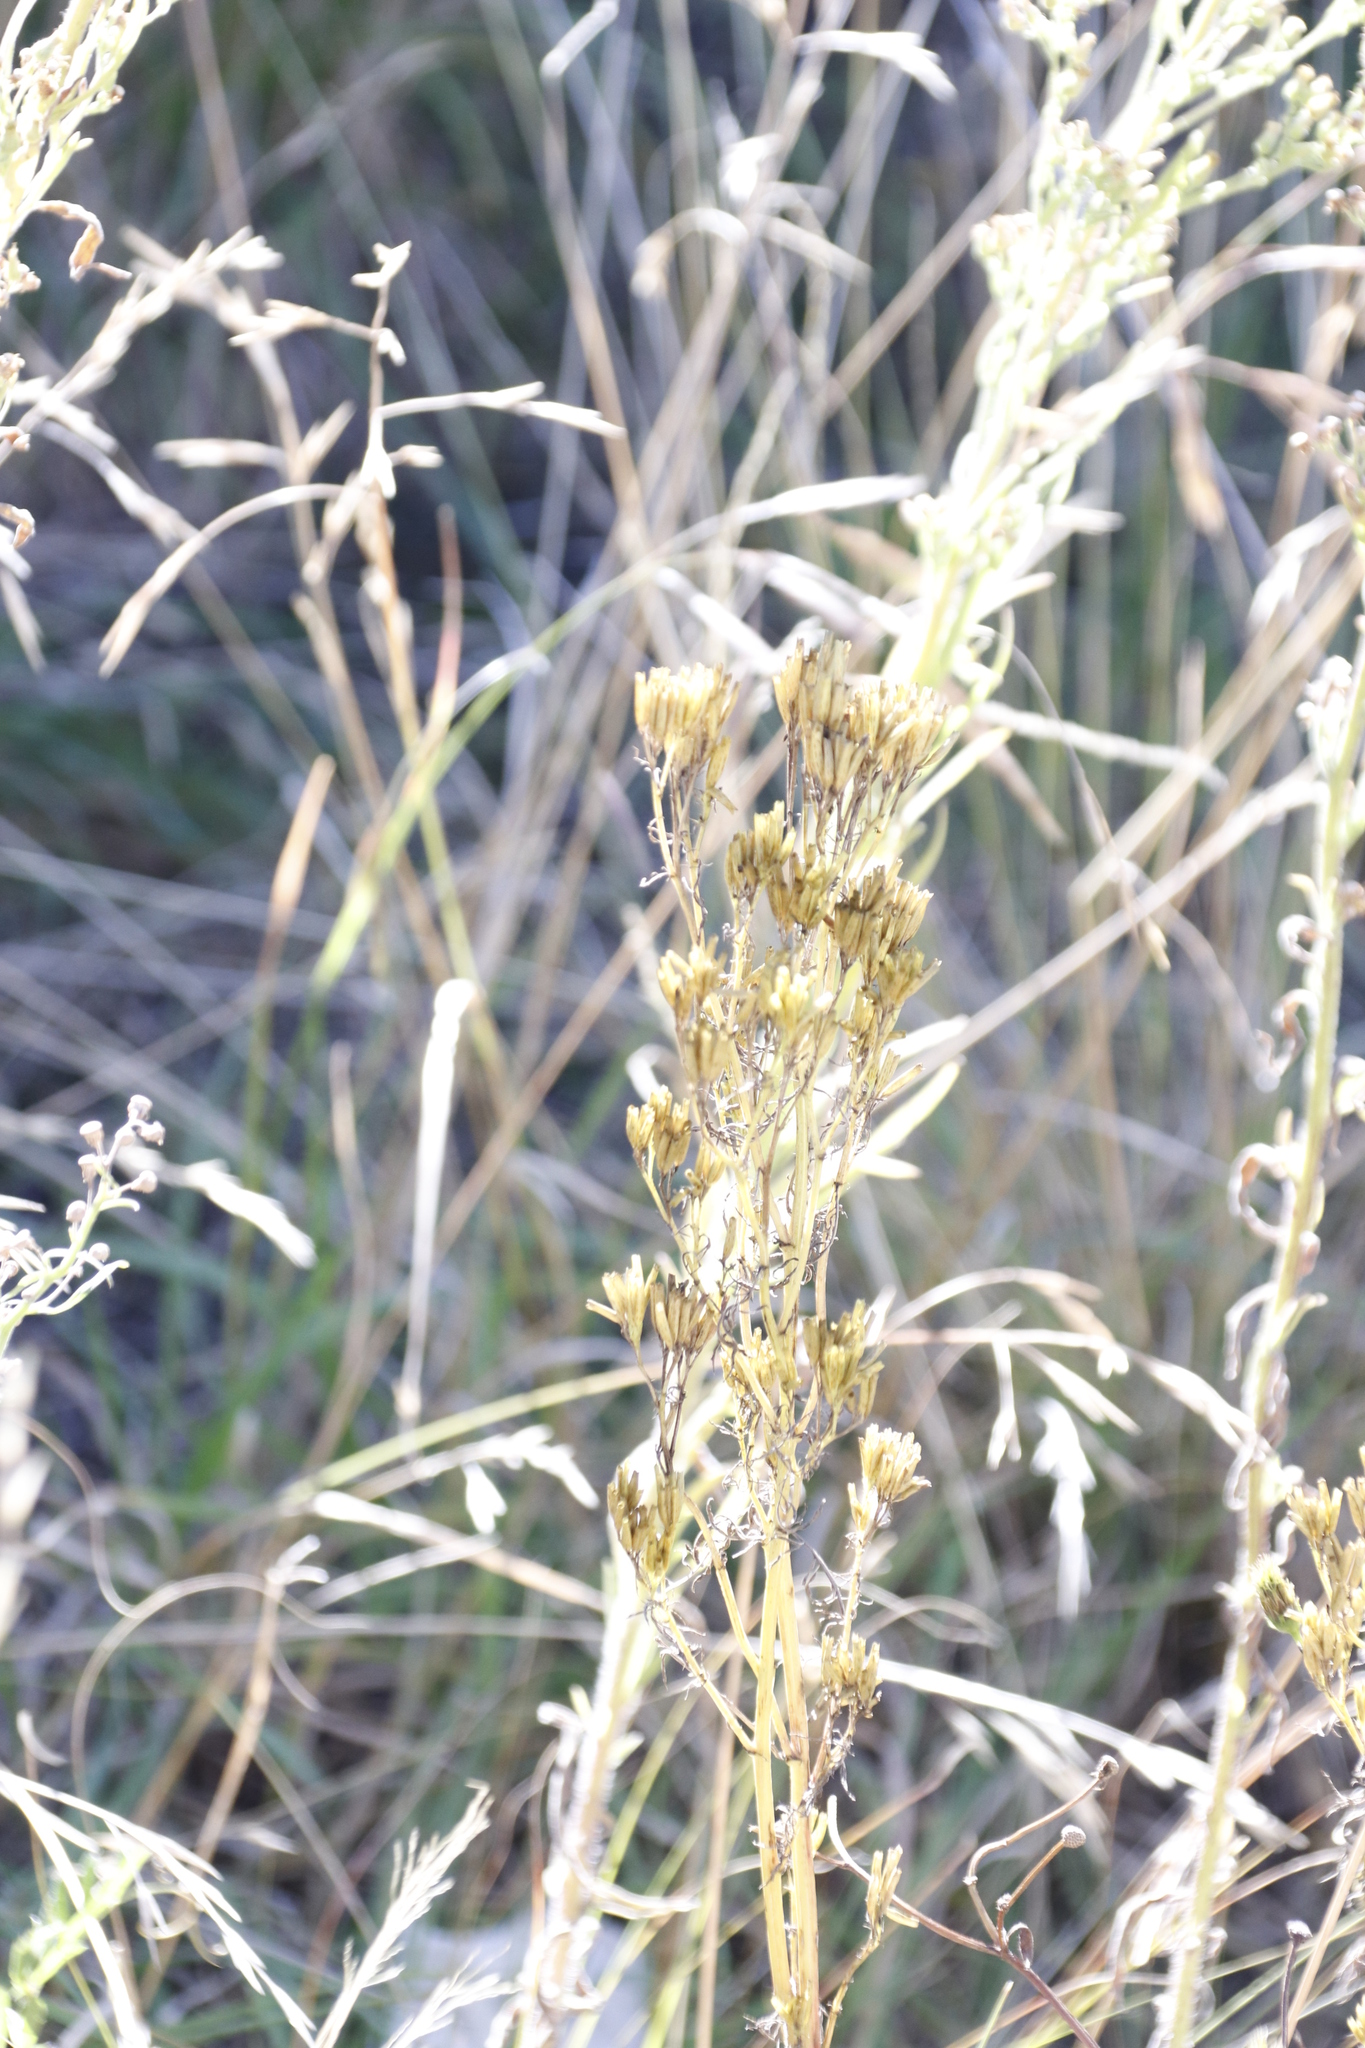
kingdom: Plantae
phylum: Tracheophyta
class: Magnoliopsida
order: Asterales
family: Asteraceae
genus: Tagetes
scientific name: Tagetes minuta
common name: Muster john henry
